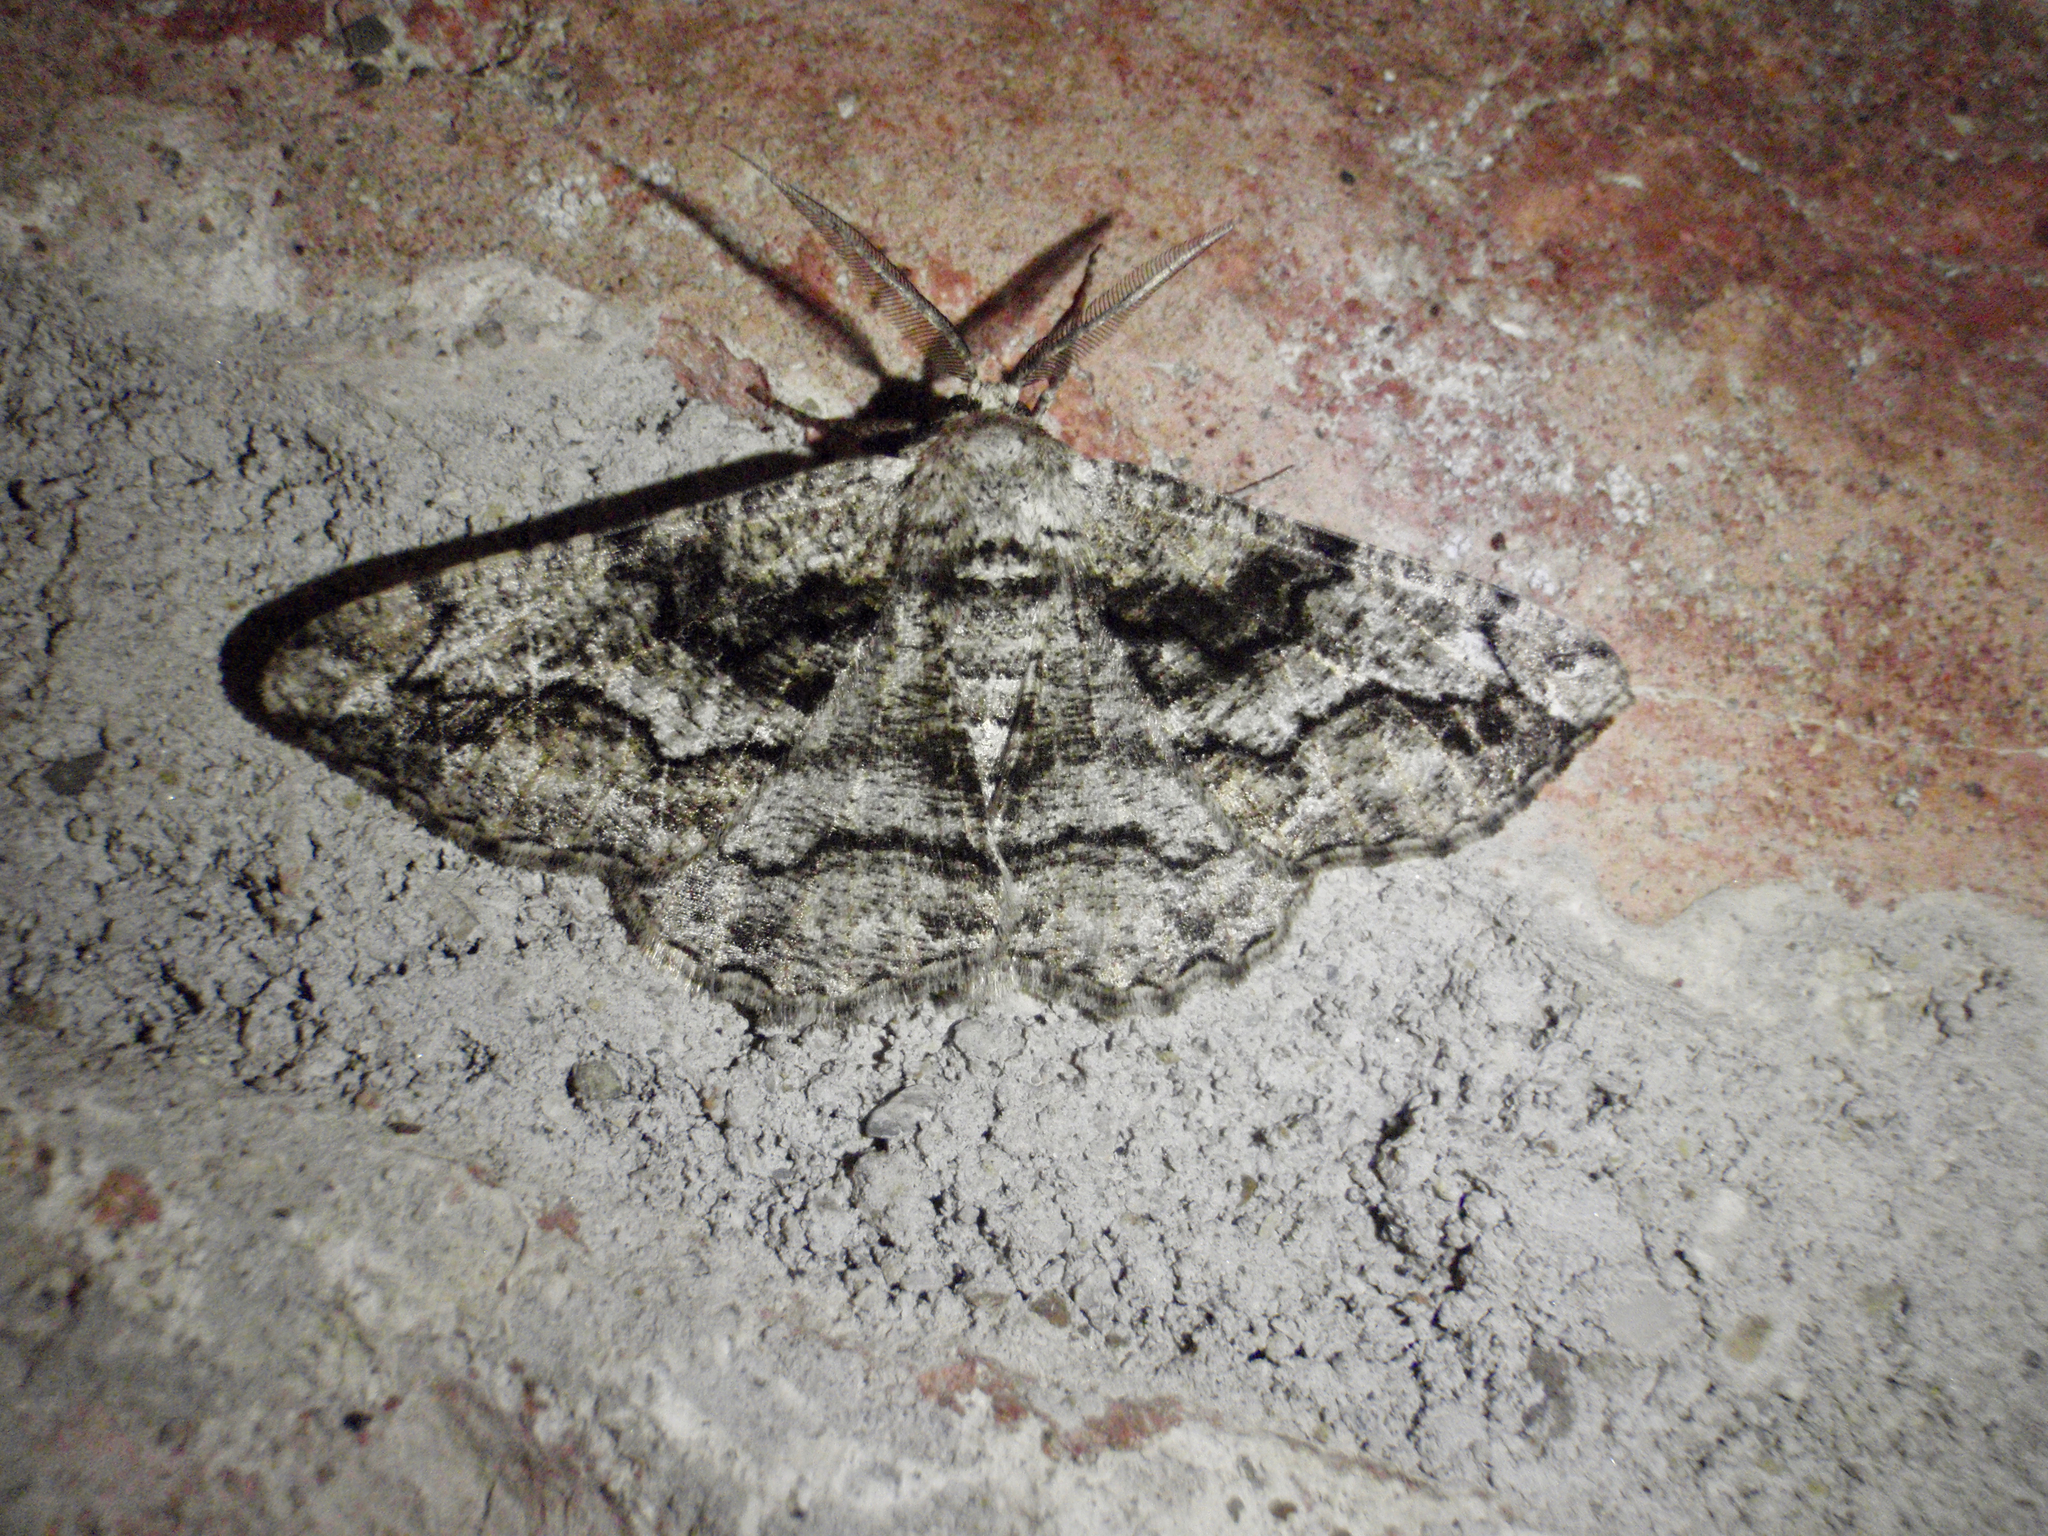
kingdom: Animalia
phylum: Arthropoda
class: Insecta
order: Lepidoptera
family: Geometridae
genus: Synopsia
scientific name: Synopsia sociaria
